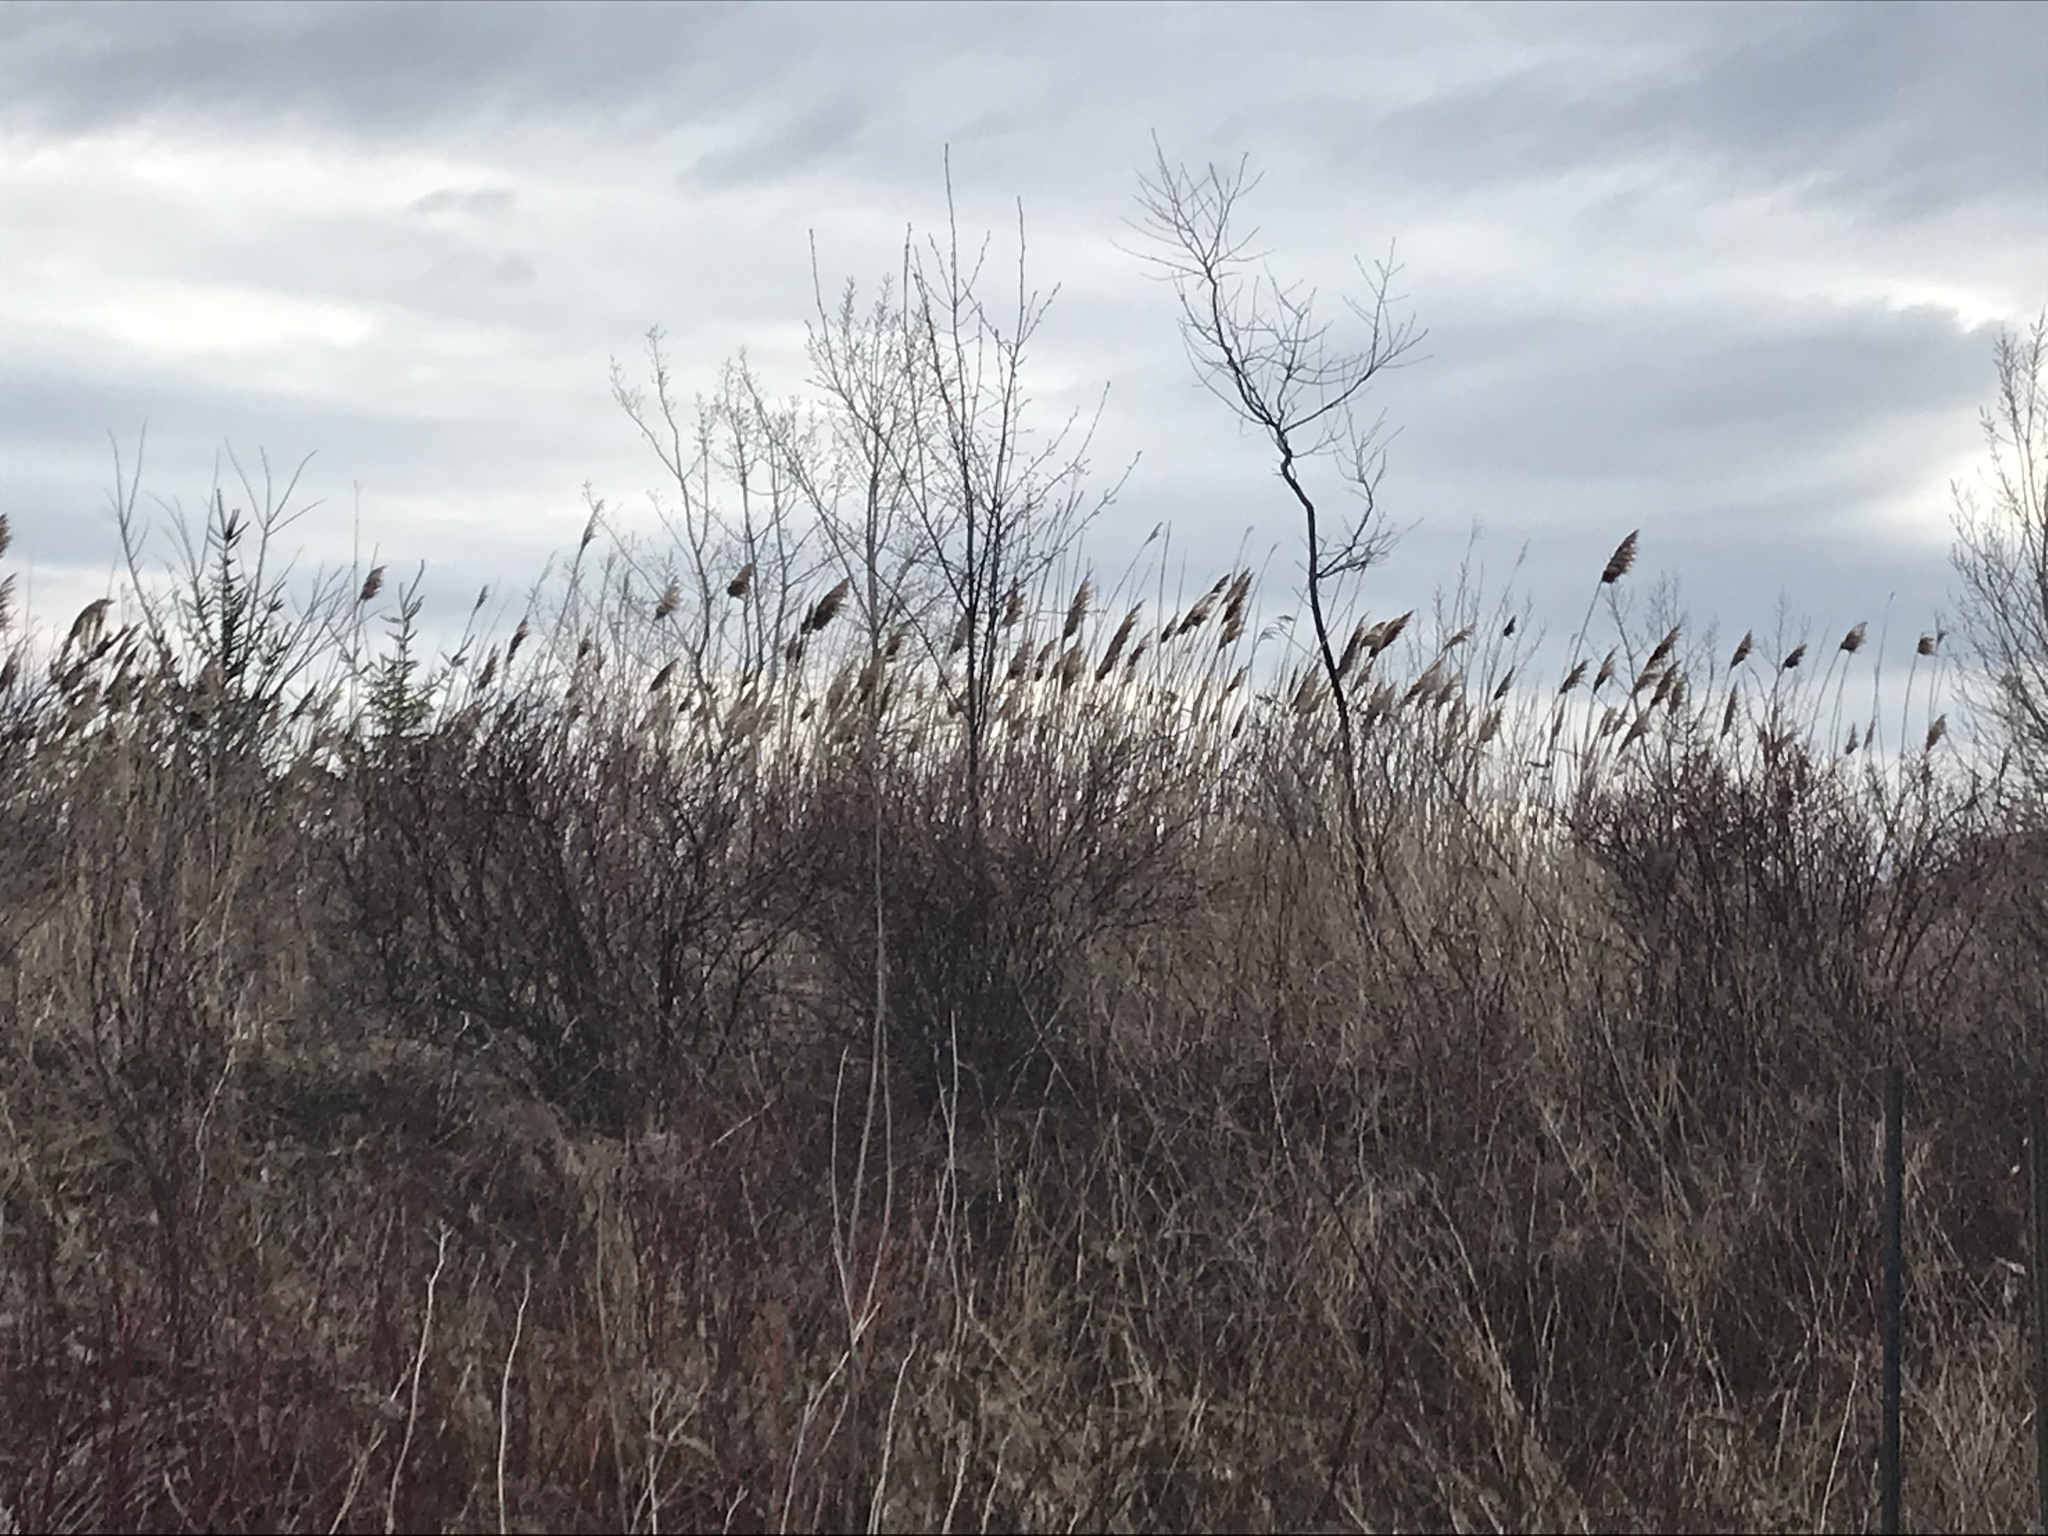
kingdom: Plantae
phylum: Tracheophyta
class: Liliopsida
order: Poales
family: Poaceae
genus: Phragmites
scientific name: Phragmites australis
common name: Common reed
